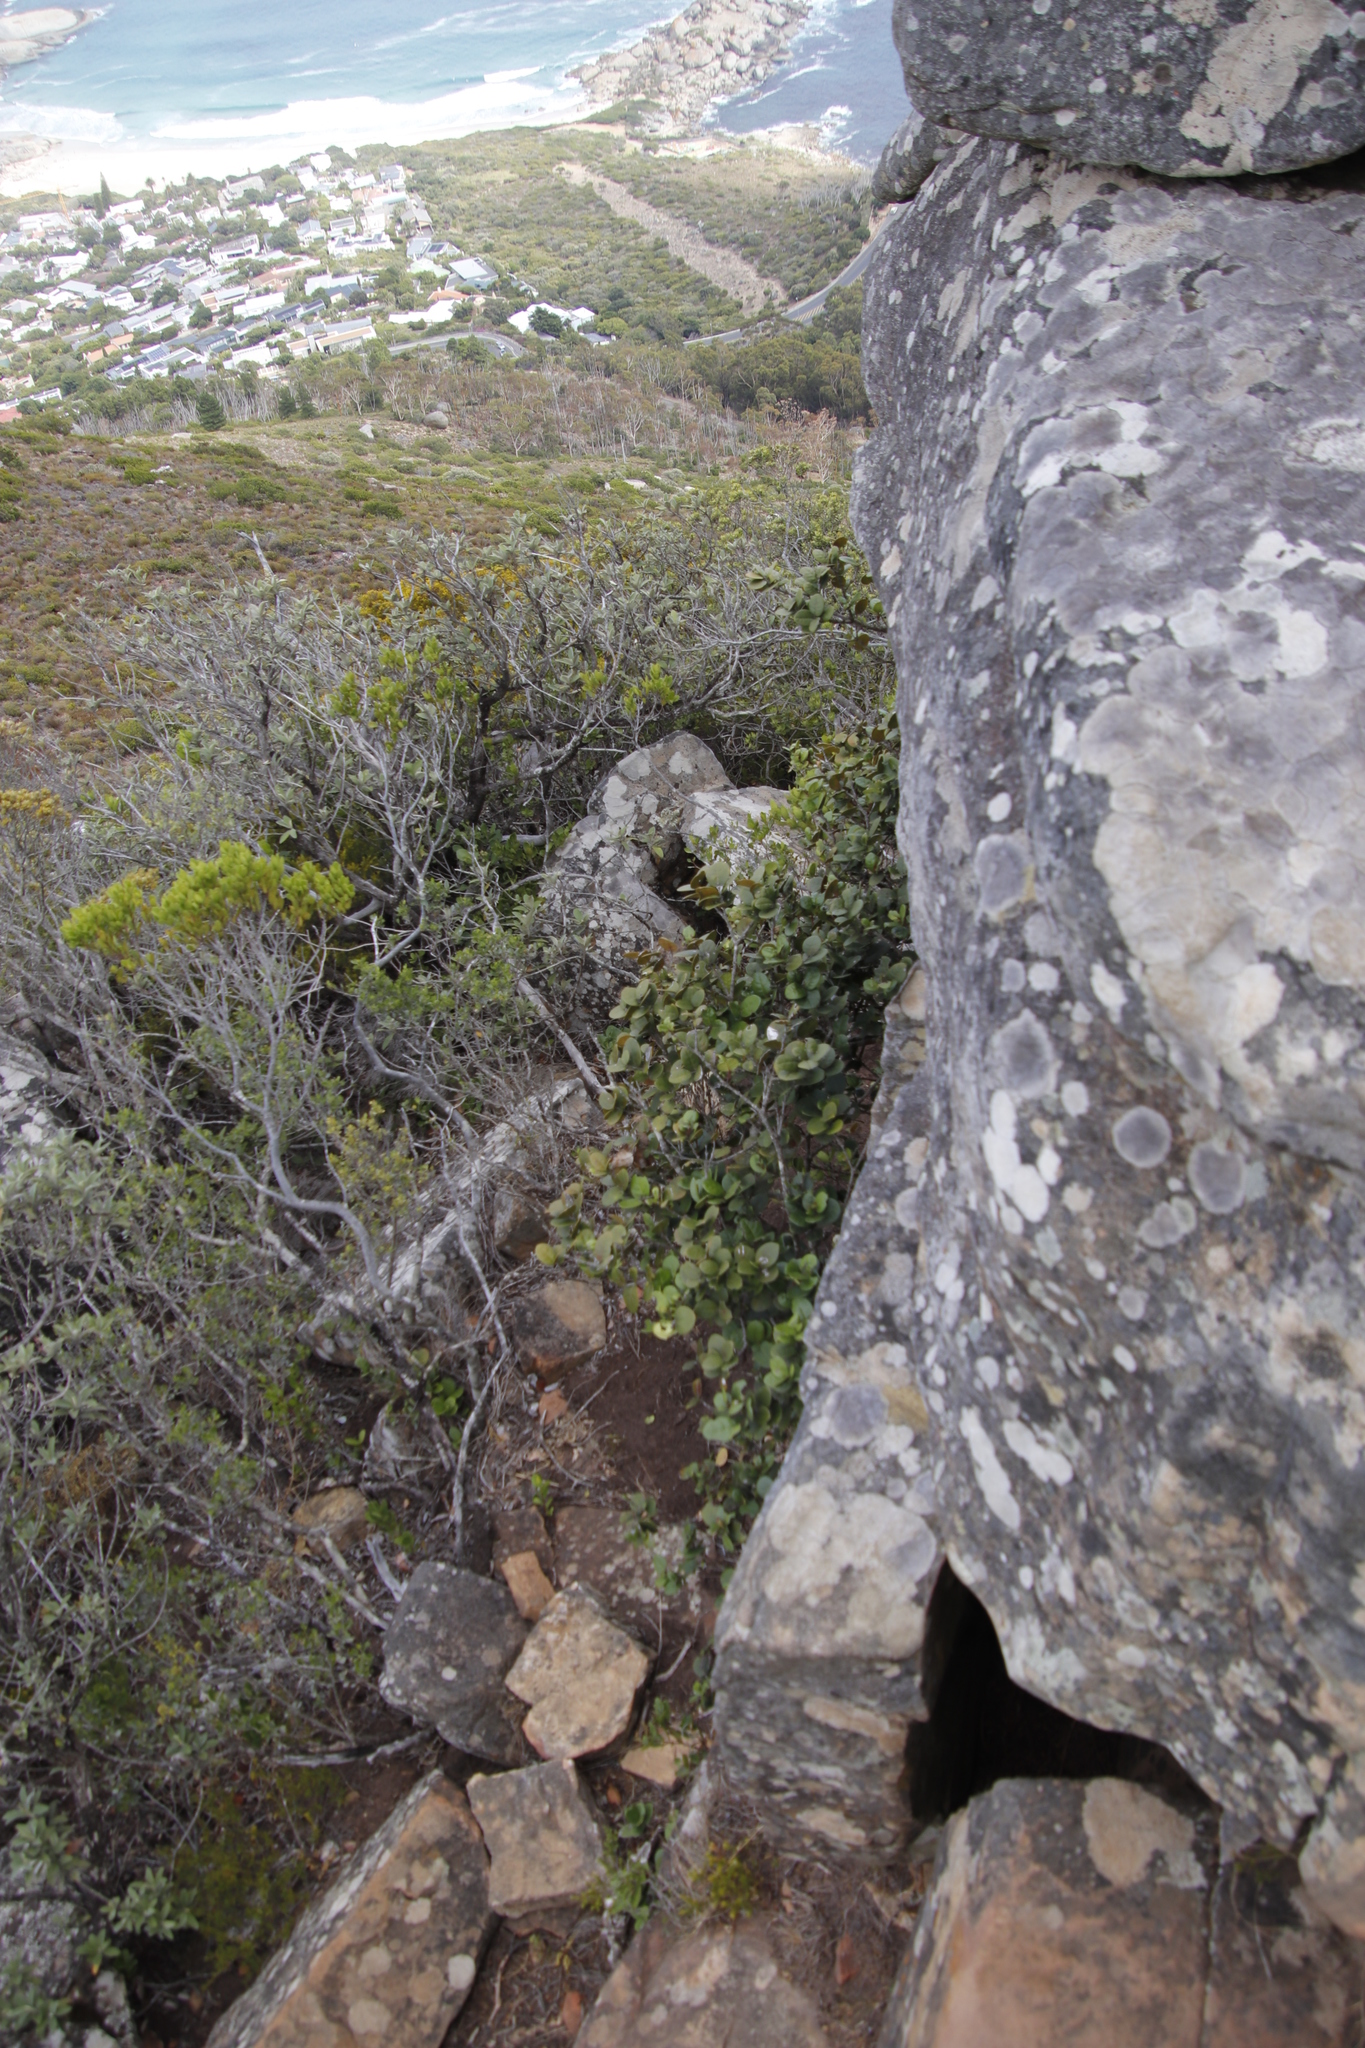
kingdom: Plantae
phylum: Tracheophyta
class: Magnoliopsida
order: Celastrales
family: Celastraceae
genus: Maurocenia
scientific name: Maurocenia frangula
